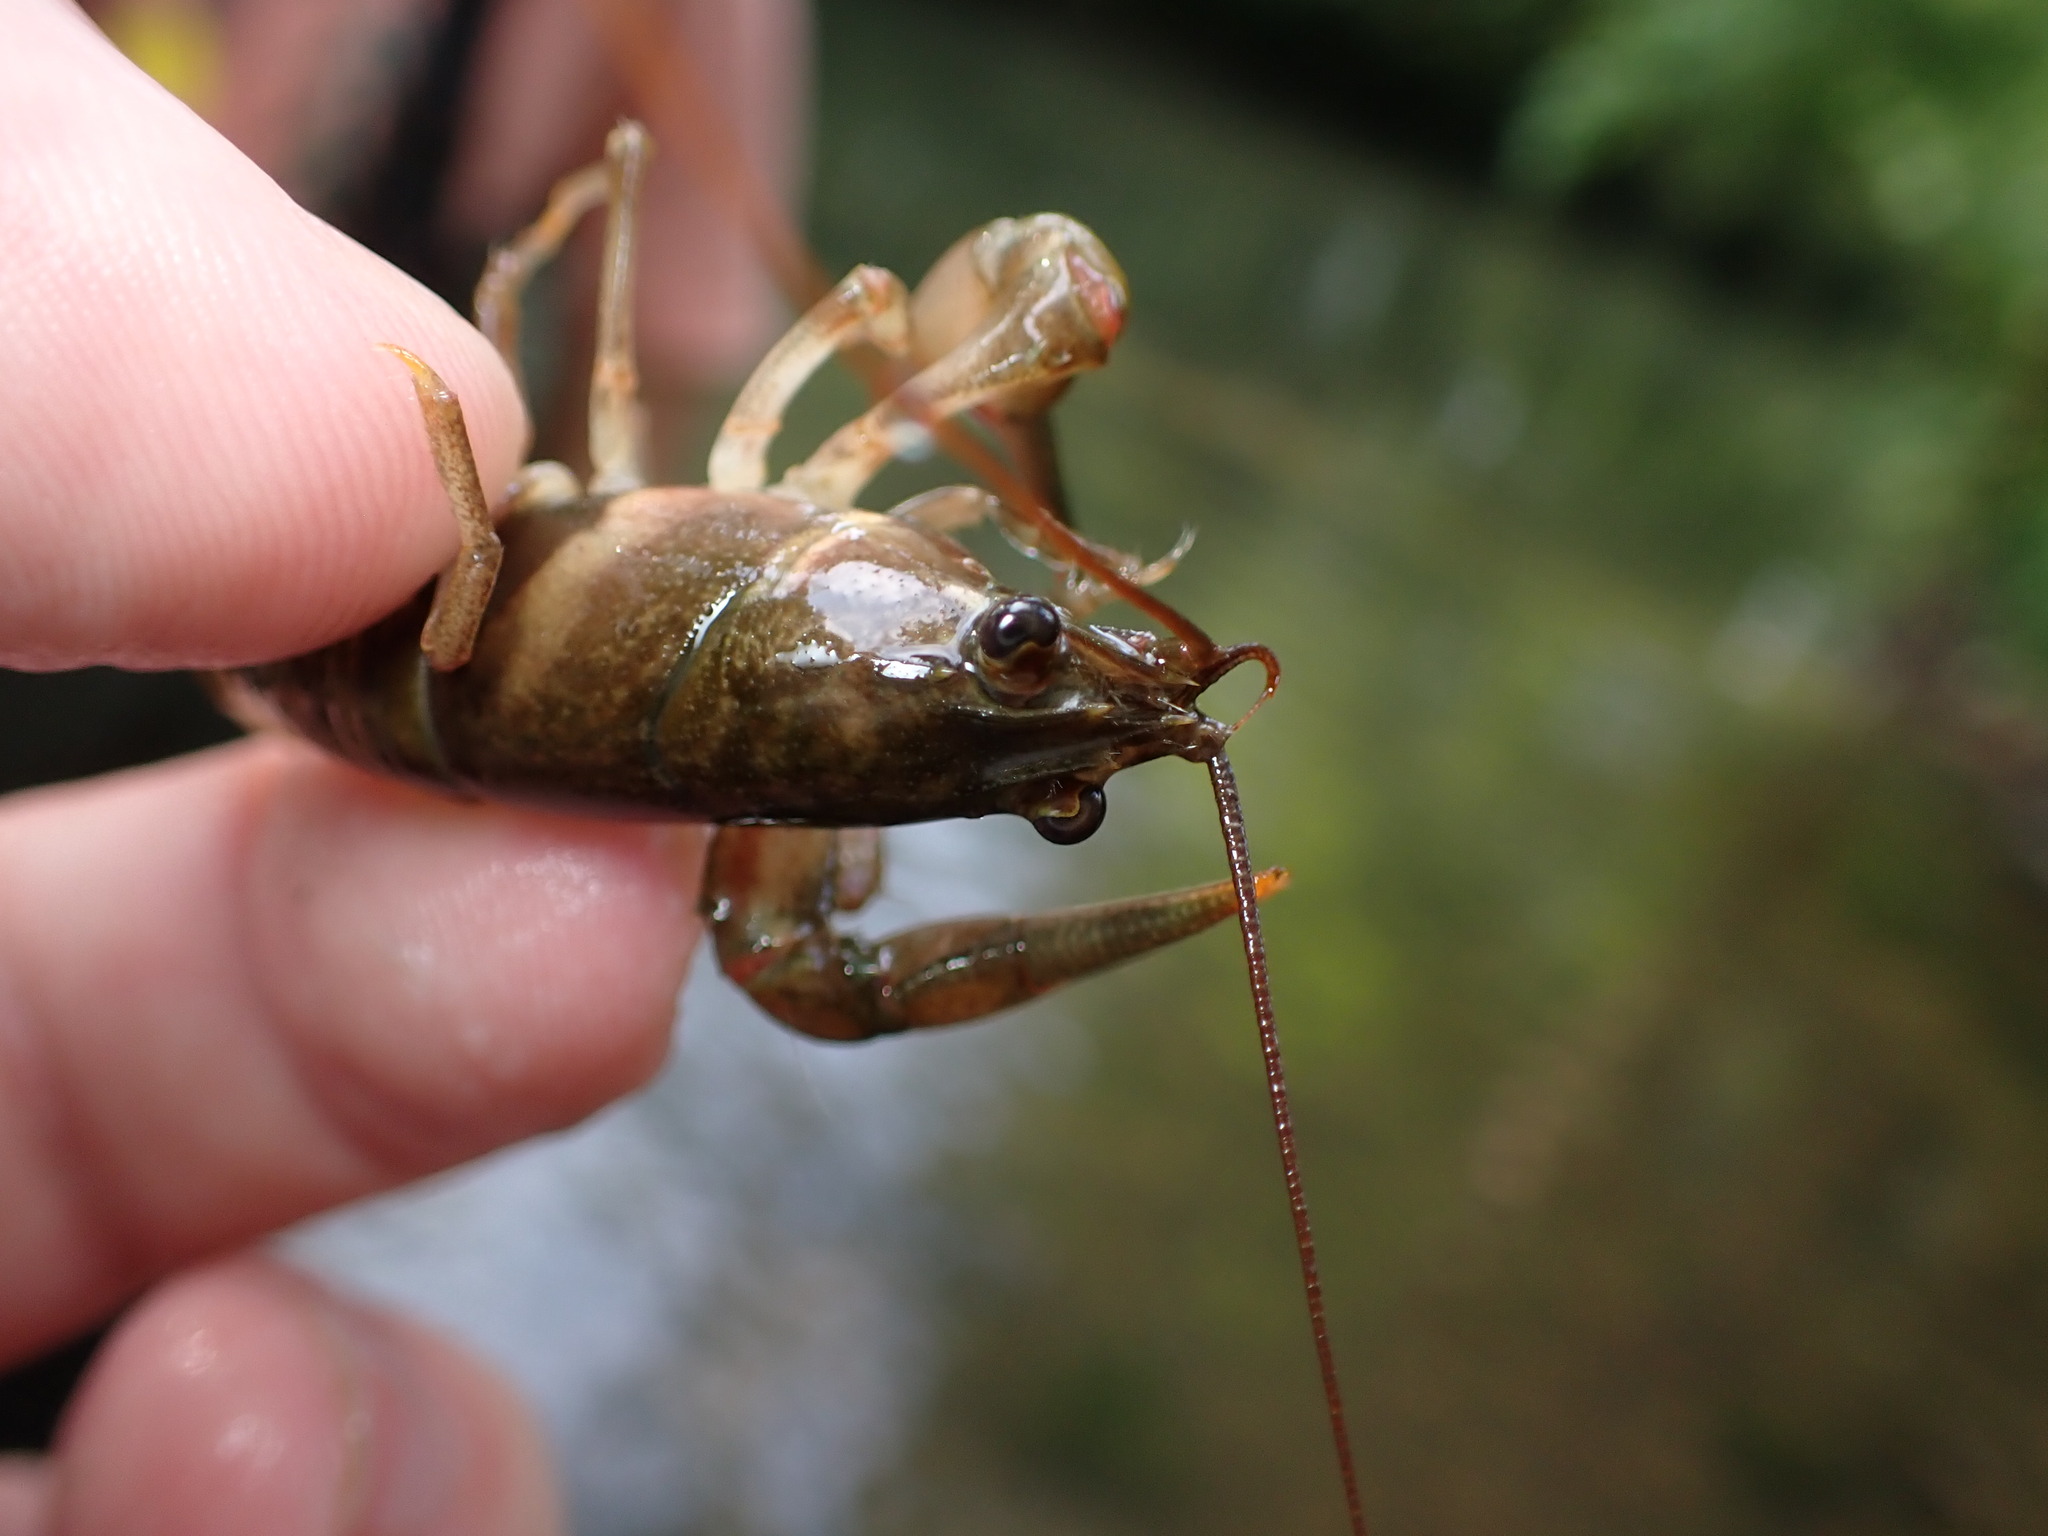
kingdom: Animalia
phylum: Arthropoda
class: Malacostraca
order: Decapoda
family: Cambaridae
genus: Faxonius
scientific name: Faxonius mirus
